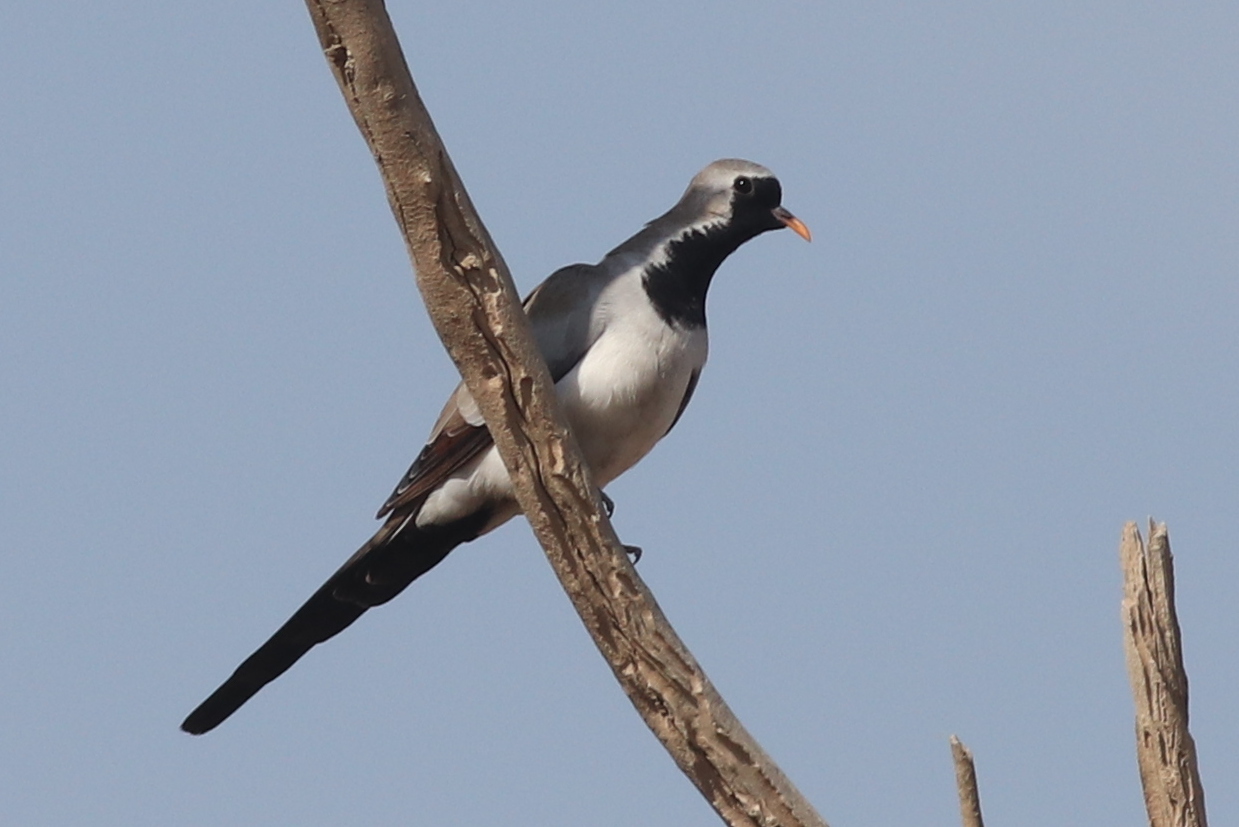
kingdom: Animalia
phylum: Chordata
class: Aves
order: Columbiformes
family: Columbidae
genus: Oena
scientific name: Oena capensis
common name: Namaqua dove
